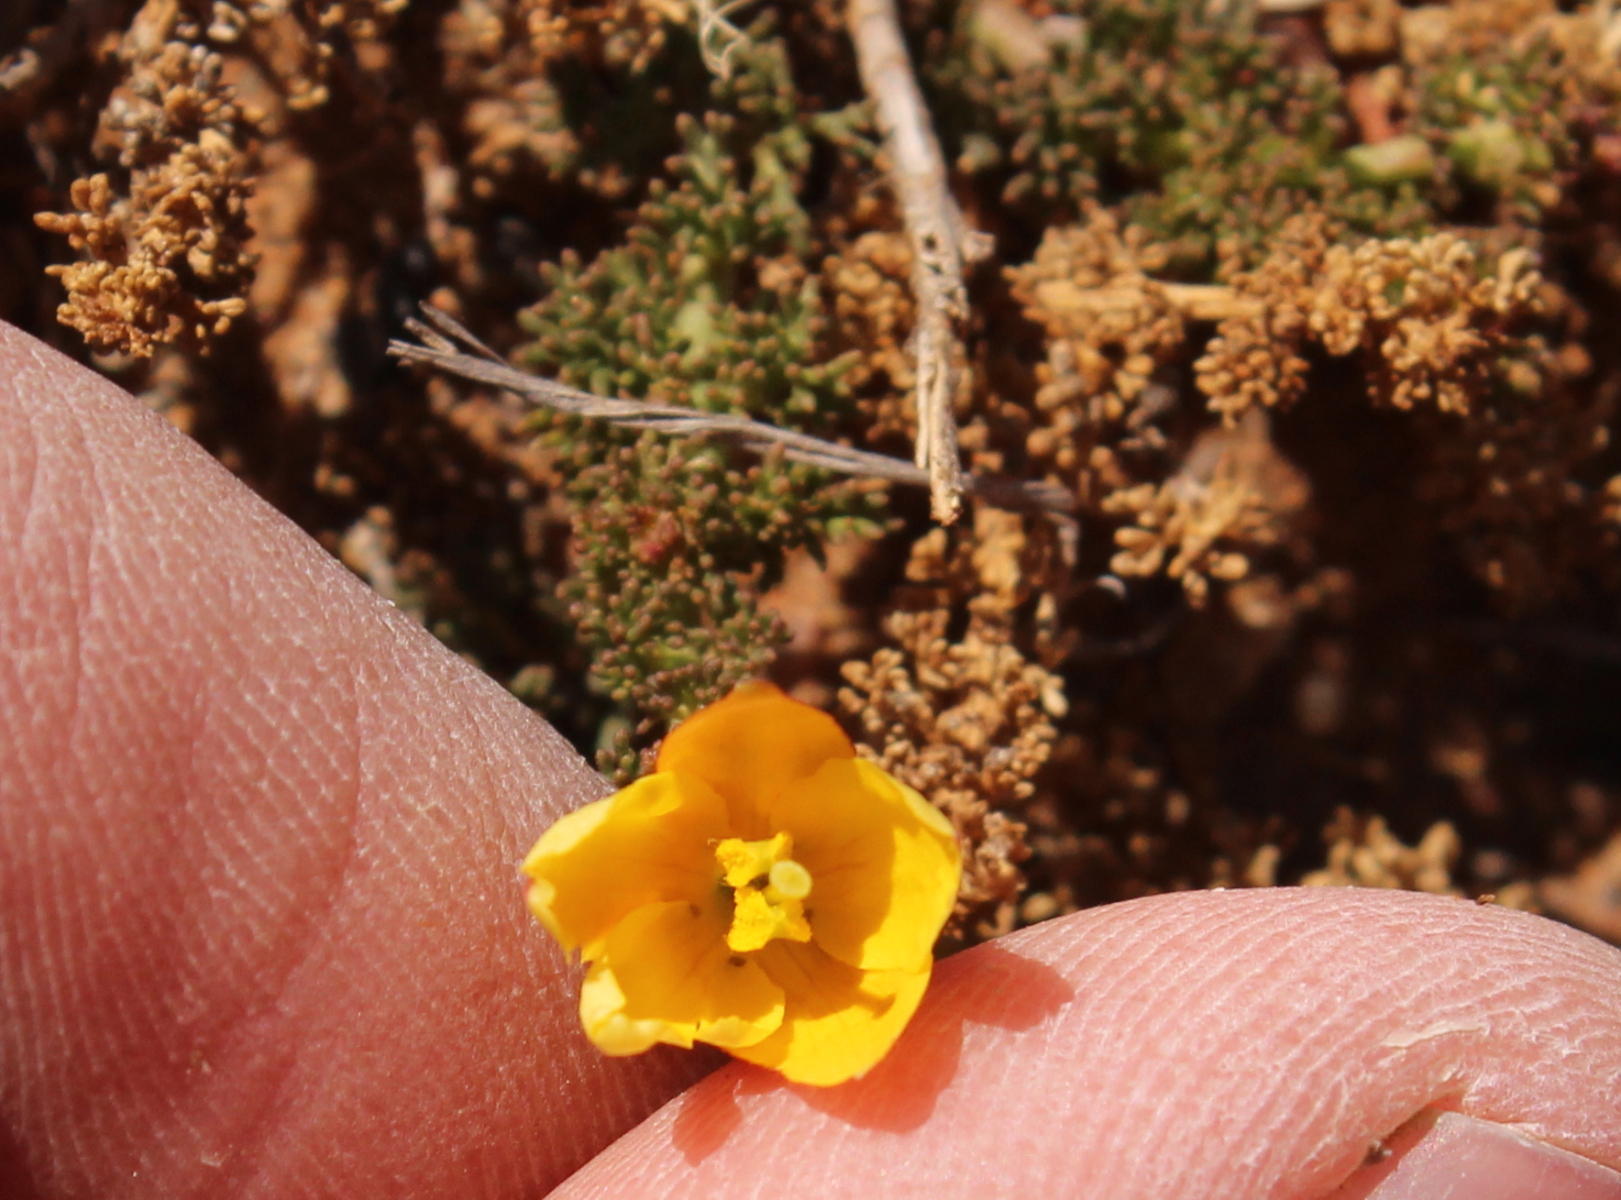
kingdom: Plantae
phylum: Tracheophyta
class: Magnoliopsida
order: Lamiales
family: Oleaceae
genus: Menodora
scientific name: Menodora africana
